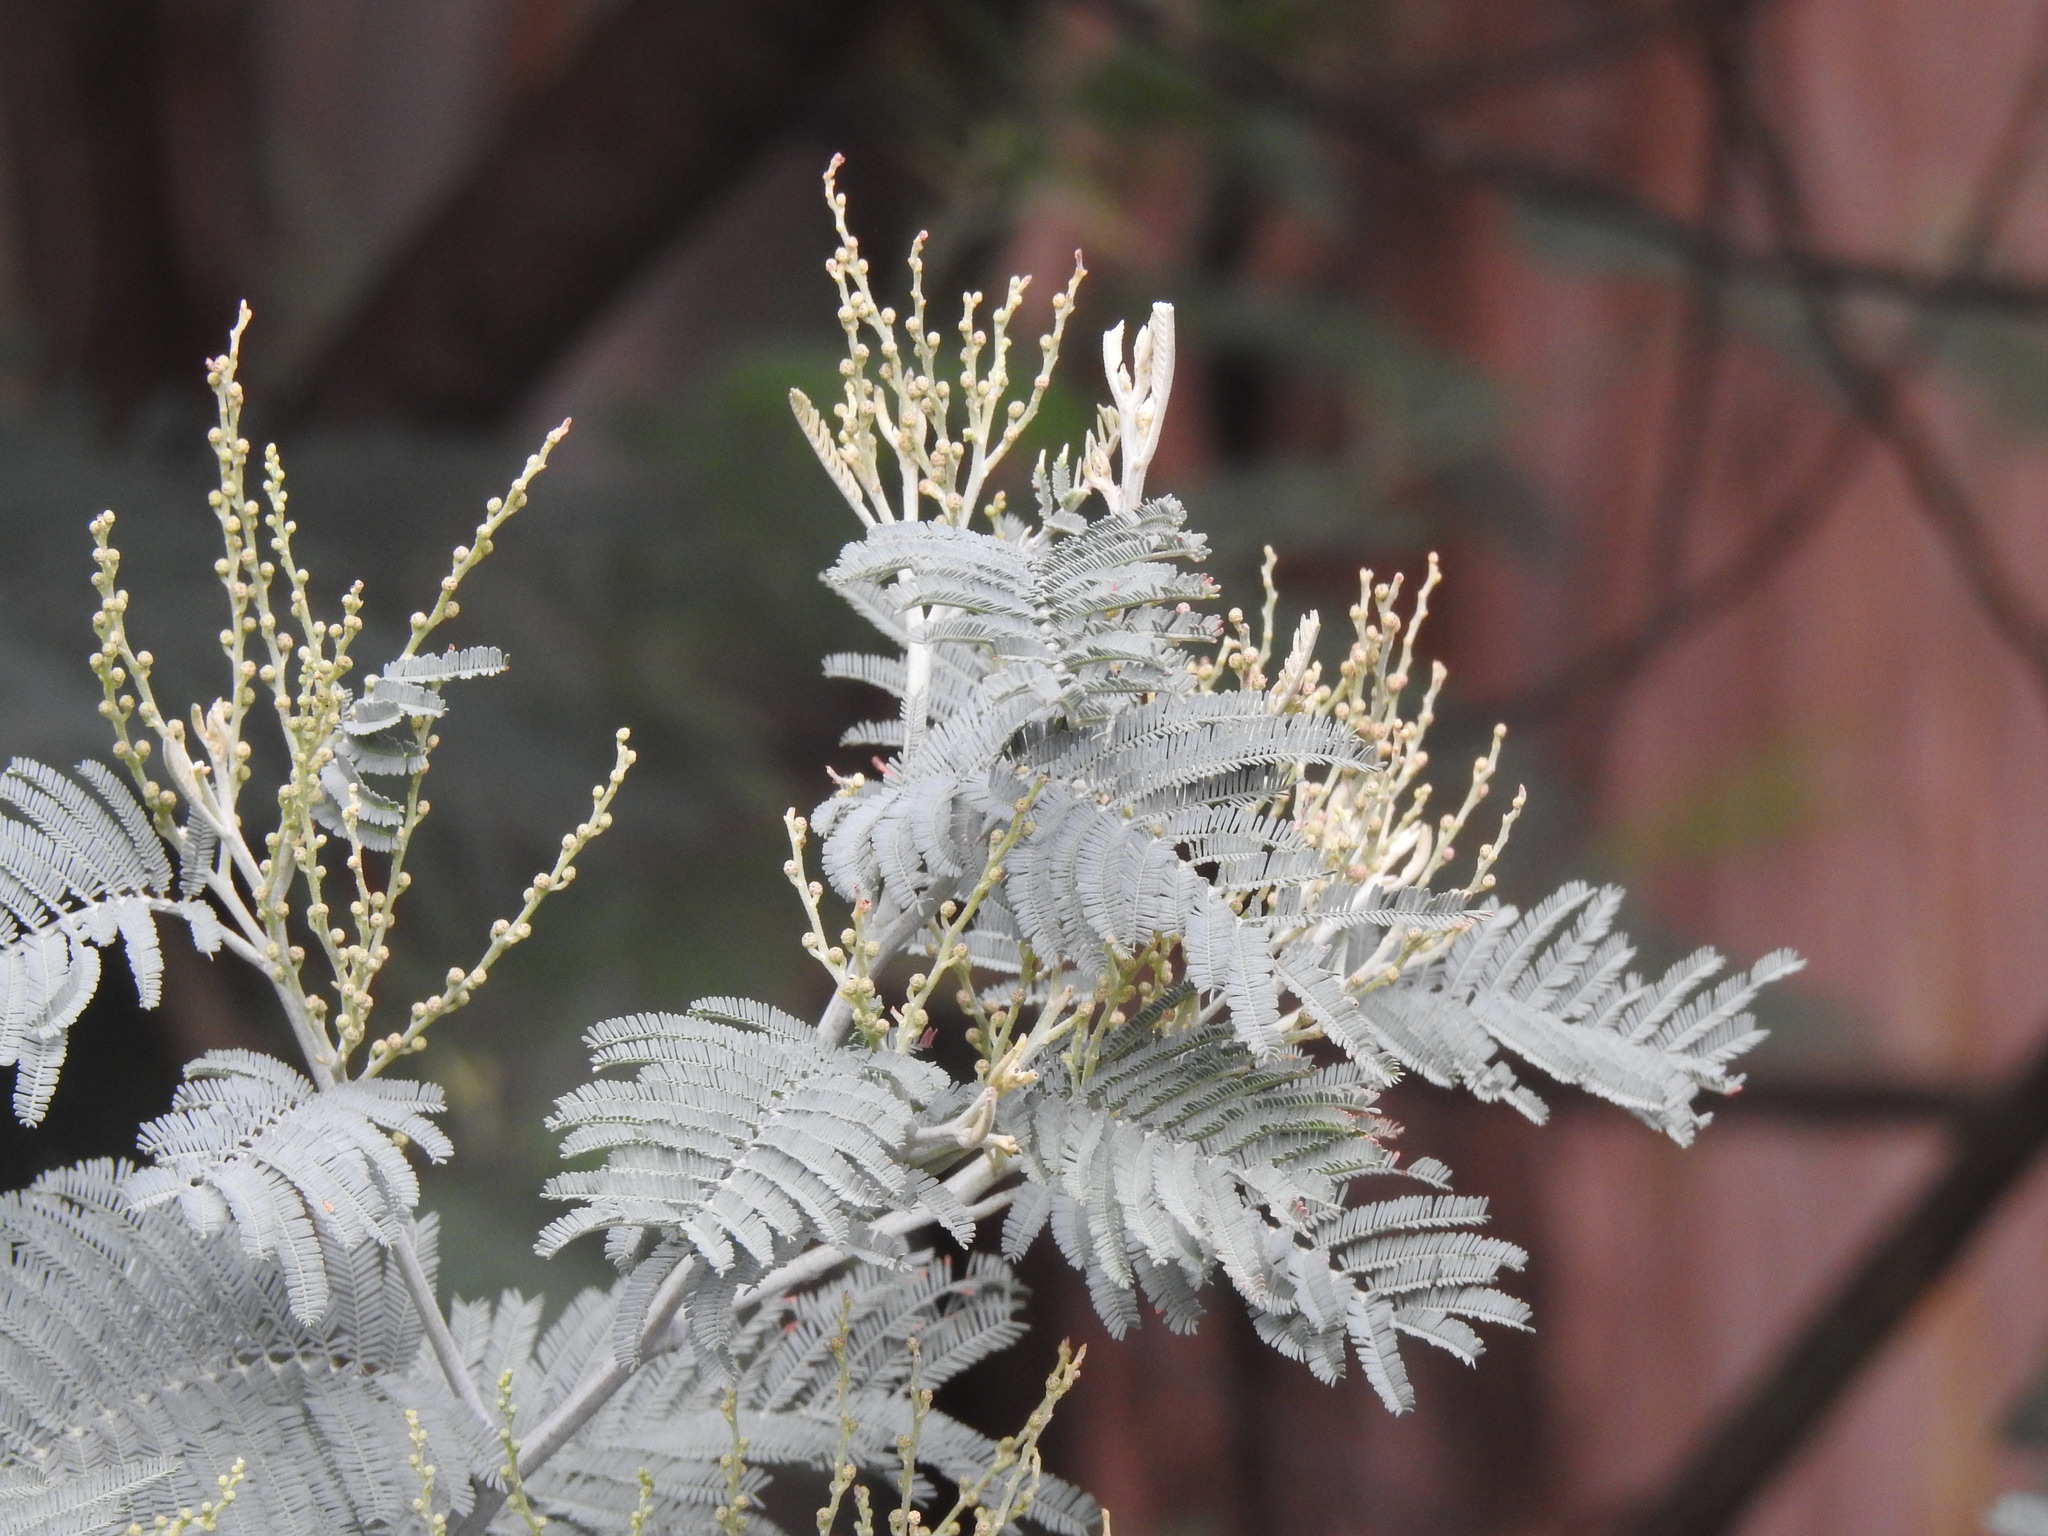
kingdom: Plantae
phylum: Tracheophyta
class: Magnoliopsida
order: Fabales
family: Fabaceae
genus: Acacia
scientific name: Acacia dealbata
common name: Silver wattle
